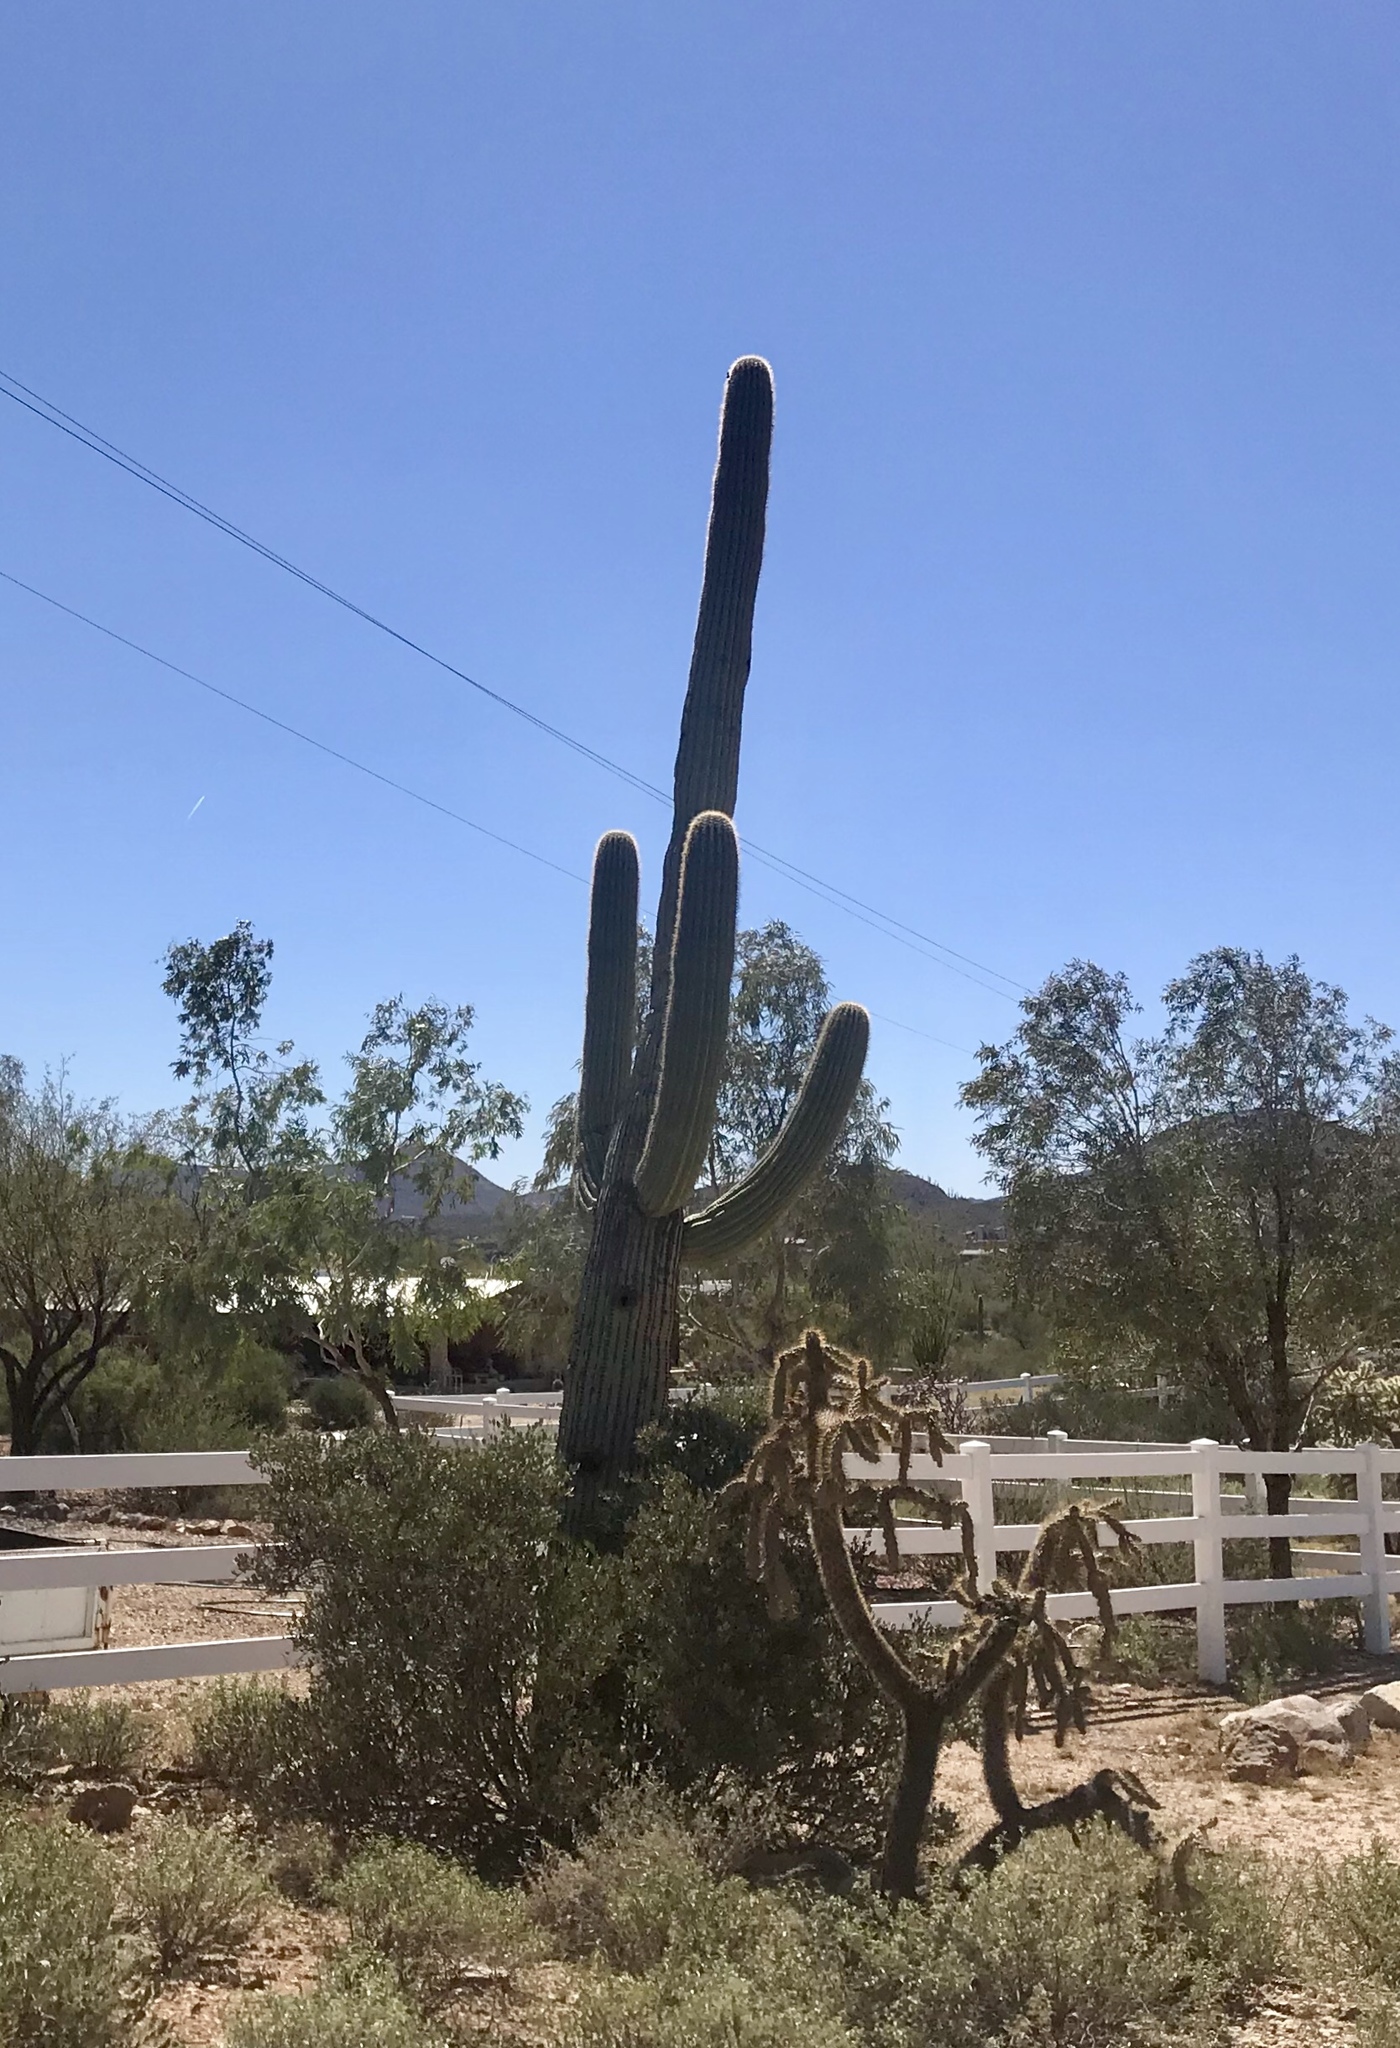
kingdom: Plantae
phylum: Tracheophyta
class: Magnoliopsida
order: Caryophyllales
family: Cactaceae
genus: Carnegiea
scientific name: Carnegiea gigantea
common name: Saguaro
